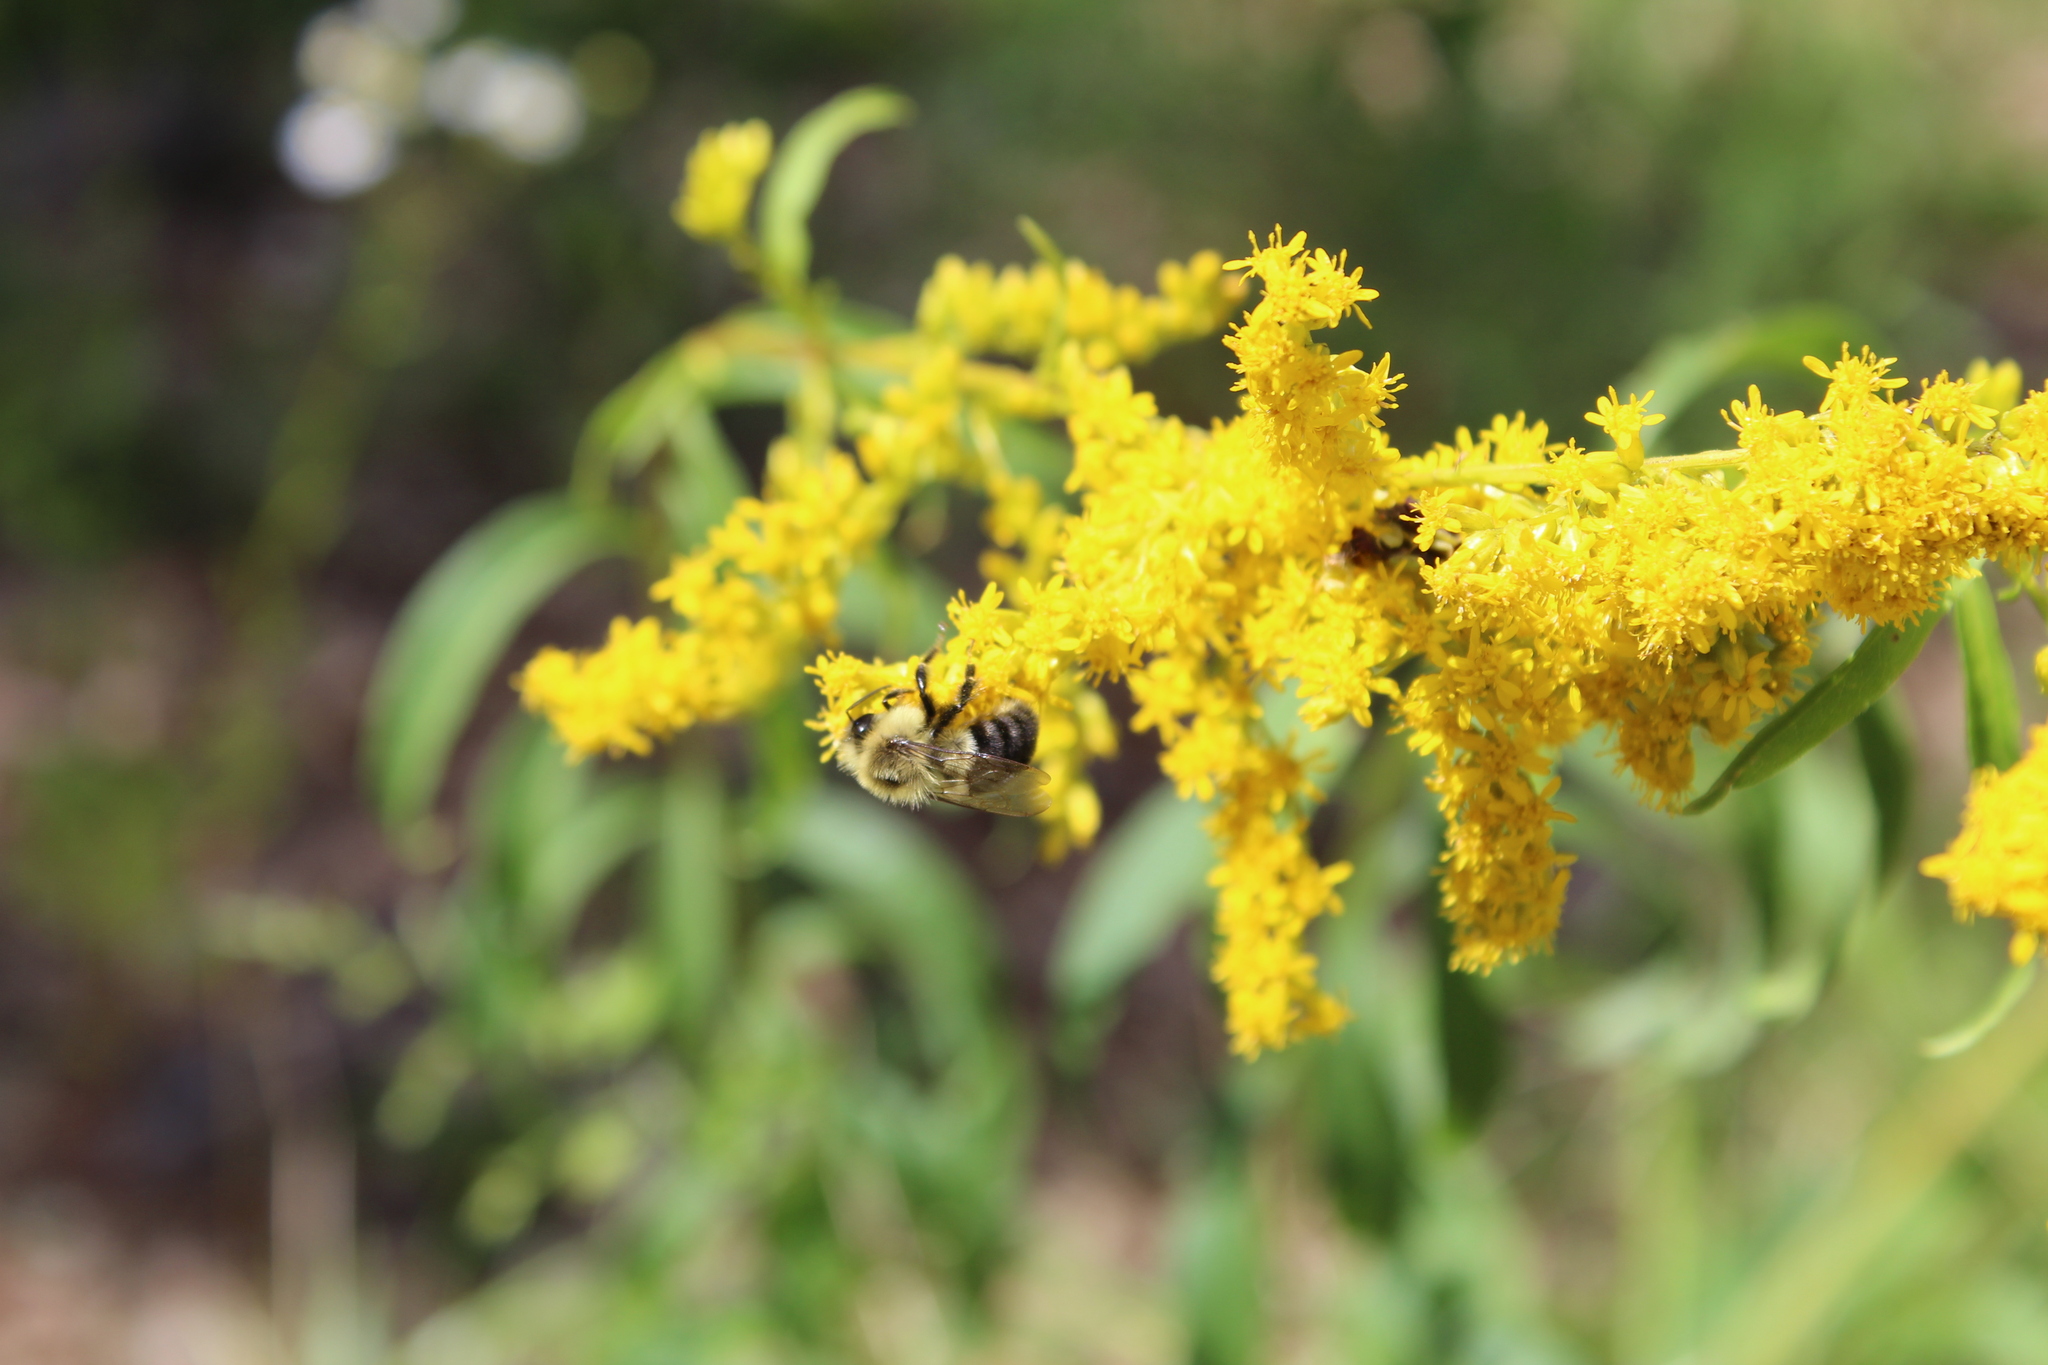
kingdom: Animalia
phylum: Arthropoda
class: Insecta
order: Hymenoptera
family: Apidae
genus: Bombus
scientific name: Bombus impatiens
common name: Common eastern bumble bee
